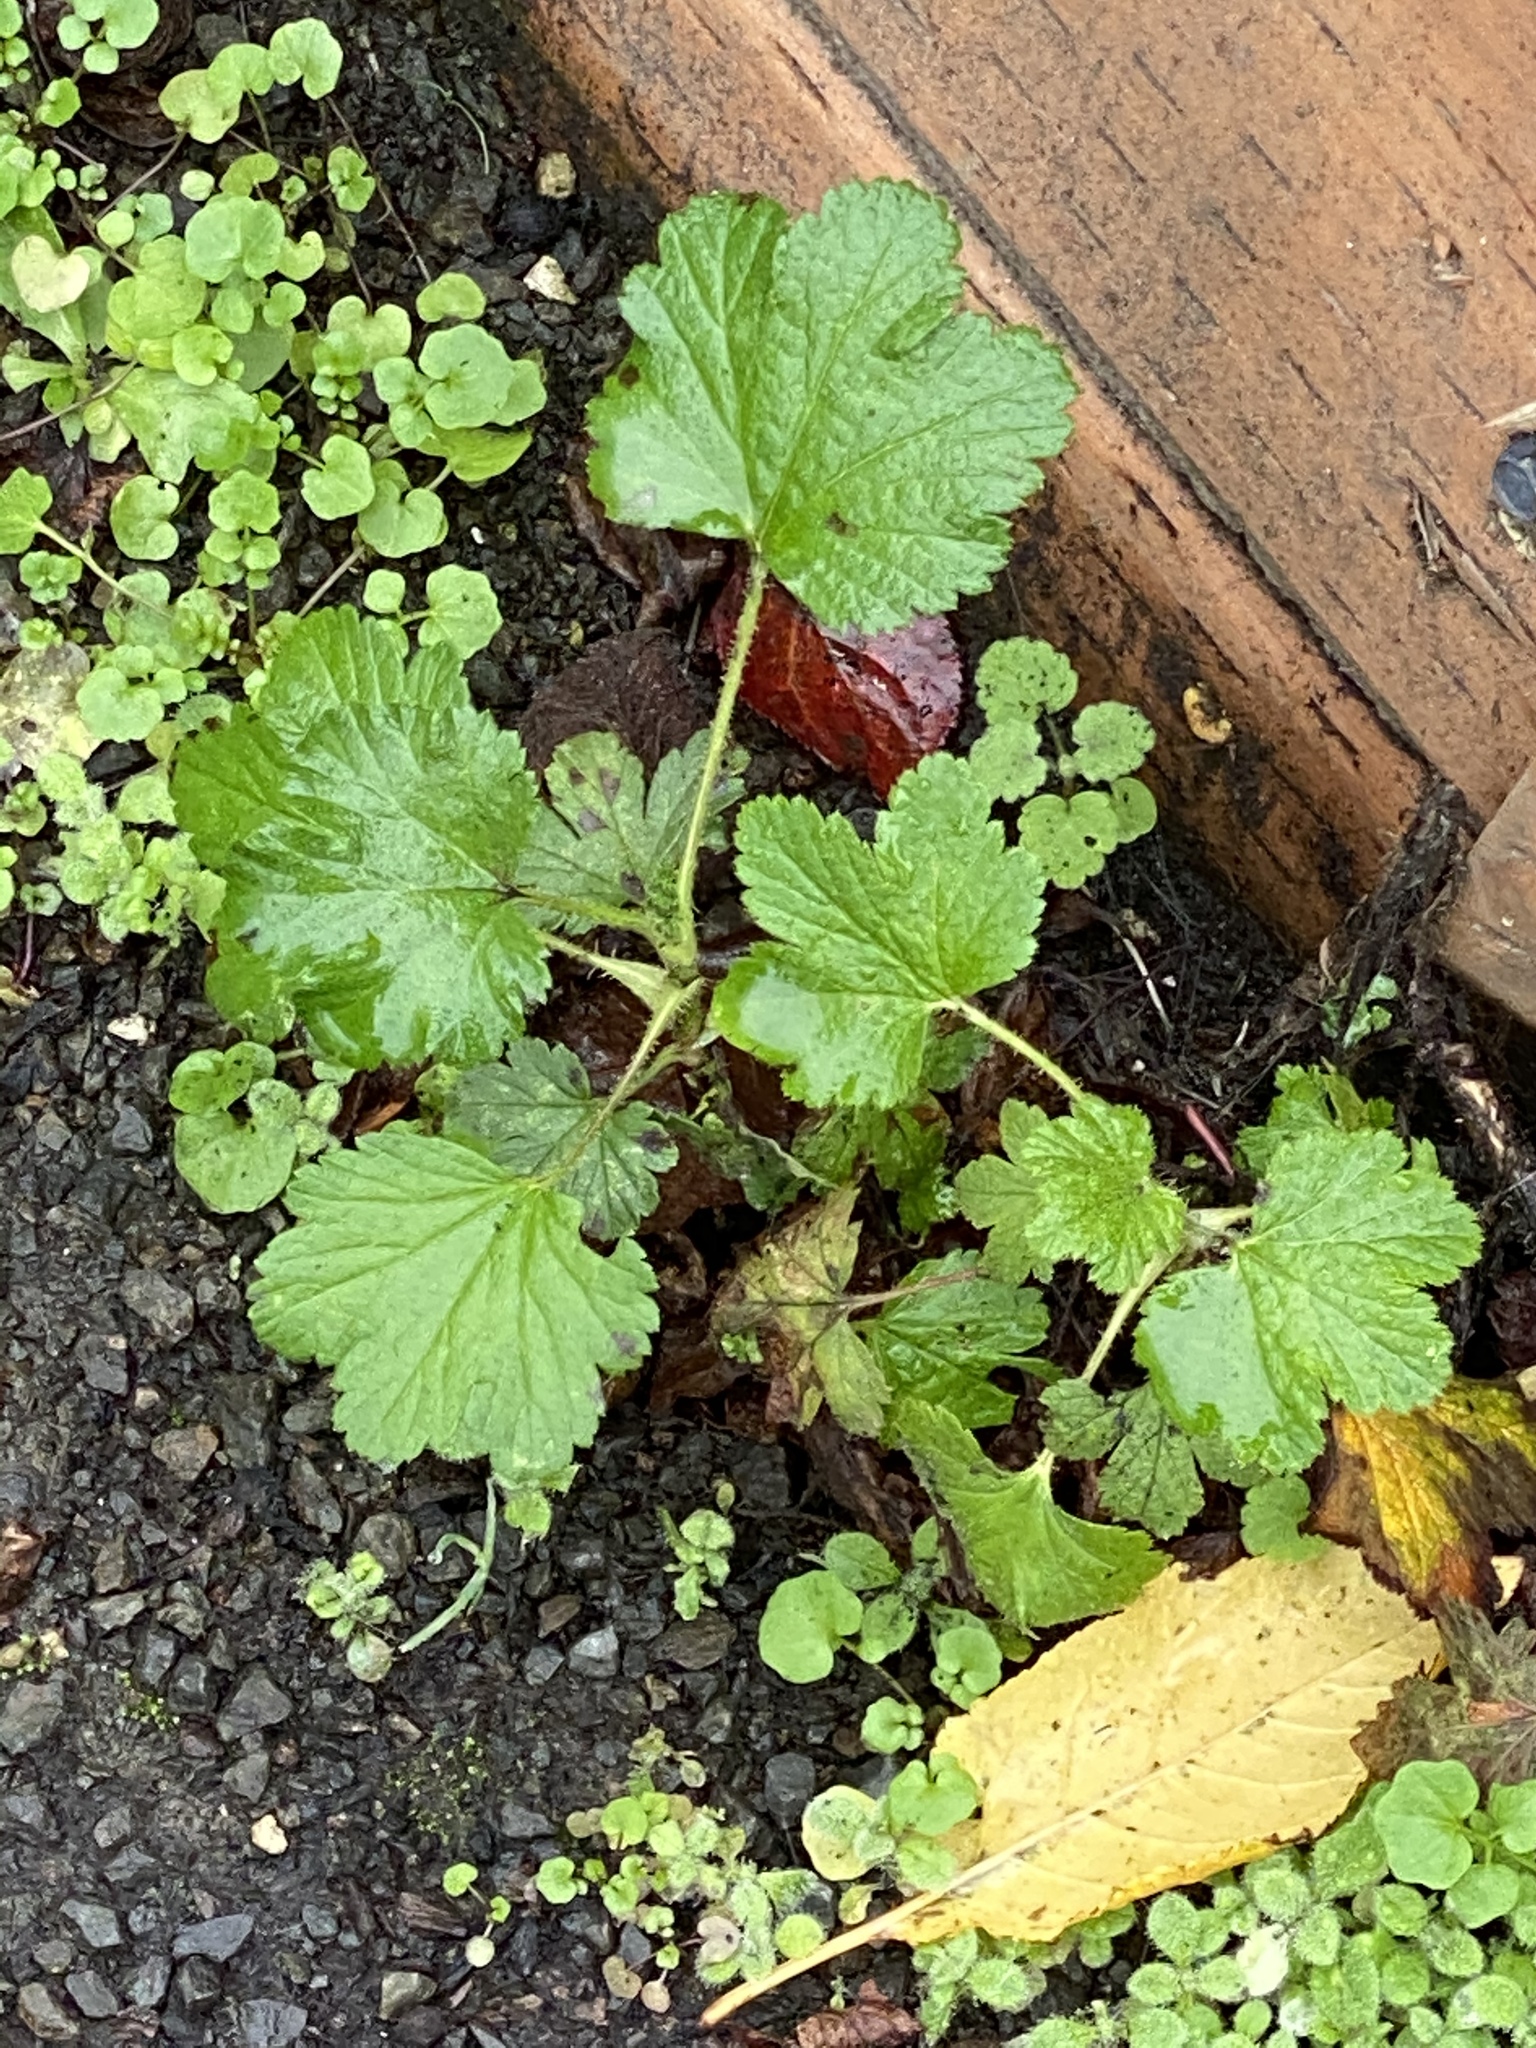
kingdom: Plantae
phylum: Tracheophyta
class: Magnoliopsida
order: Apiales
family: Apiaceae
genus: Sanicula
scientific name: Sanicula crassicaulis
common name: Western snakeroot
